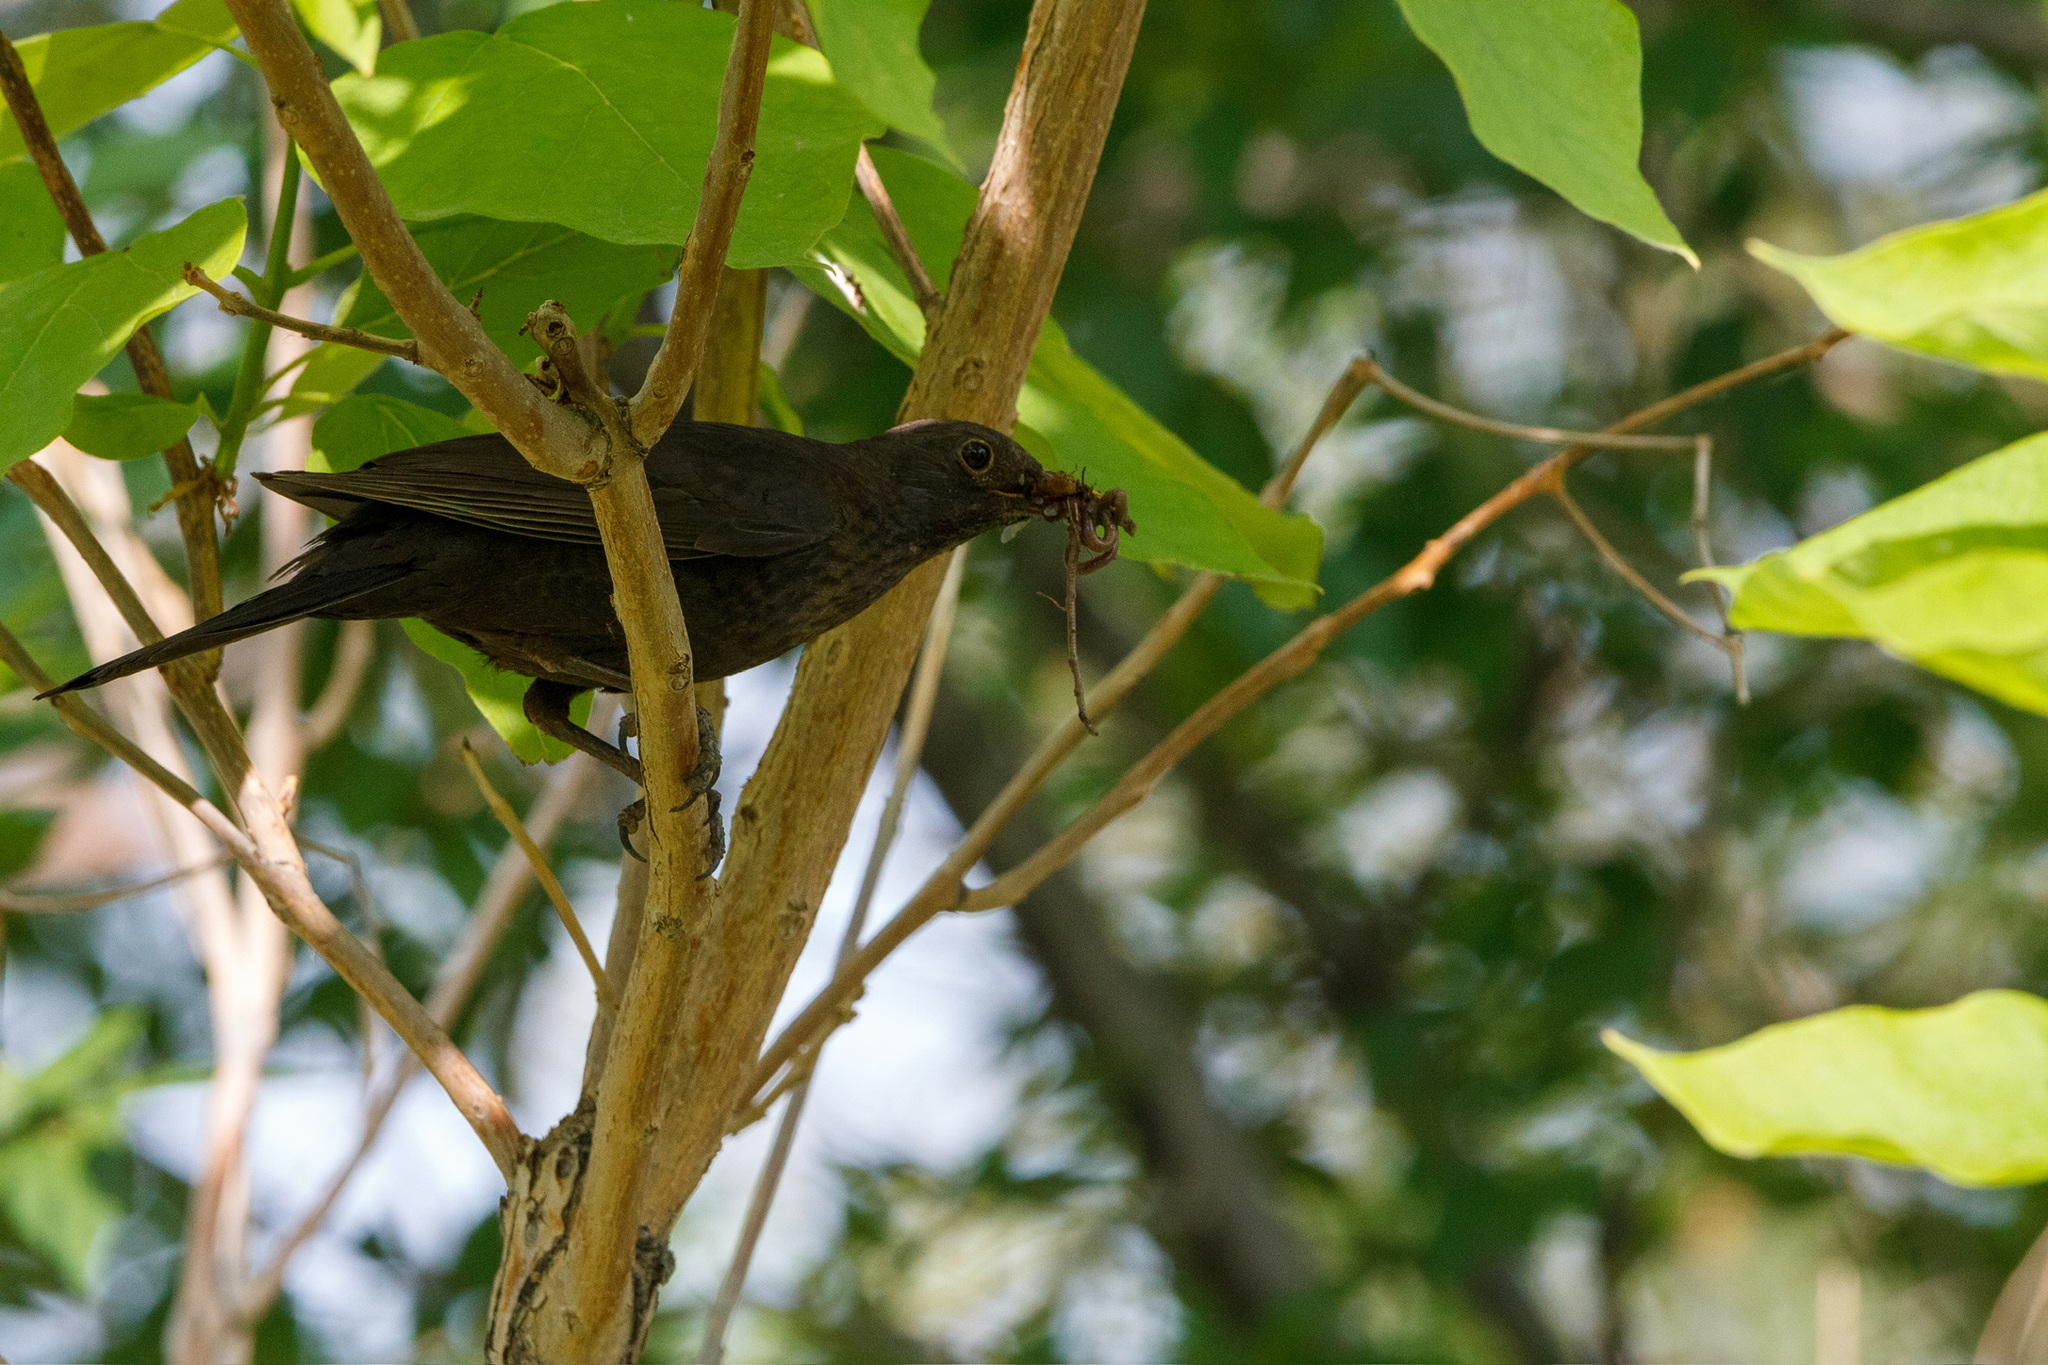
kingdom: Animalia
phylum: Chordata
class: Aves
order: Passeriformes
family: Turdidae
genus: Turdus
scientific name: Turdus merula
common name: Common blackbird
